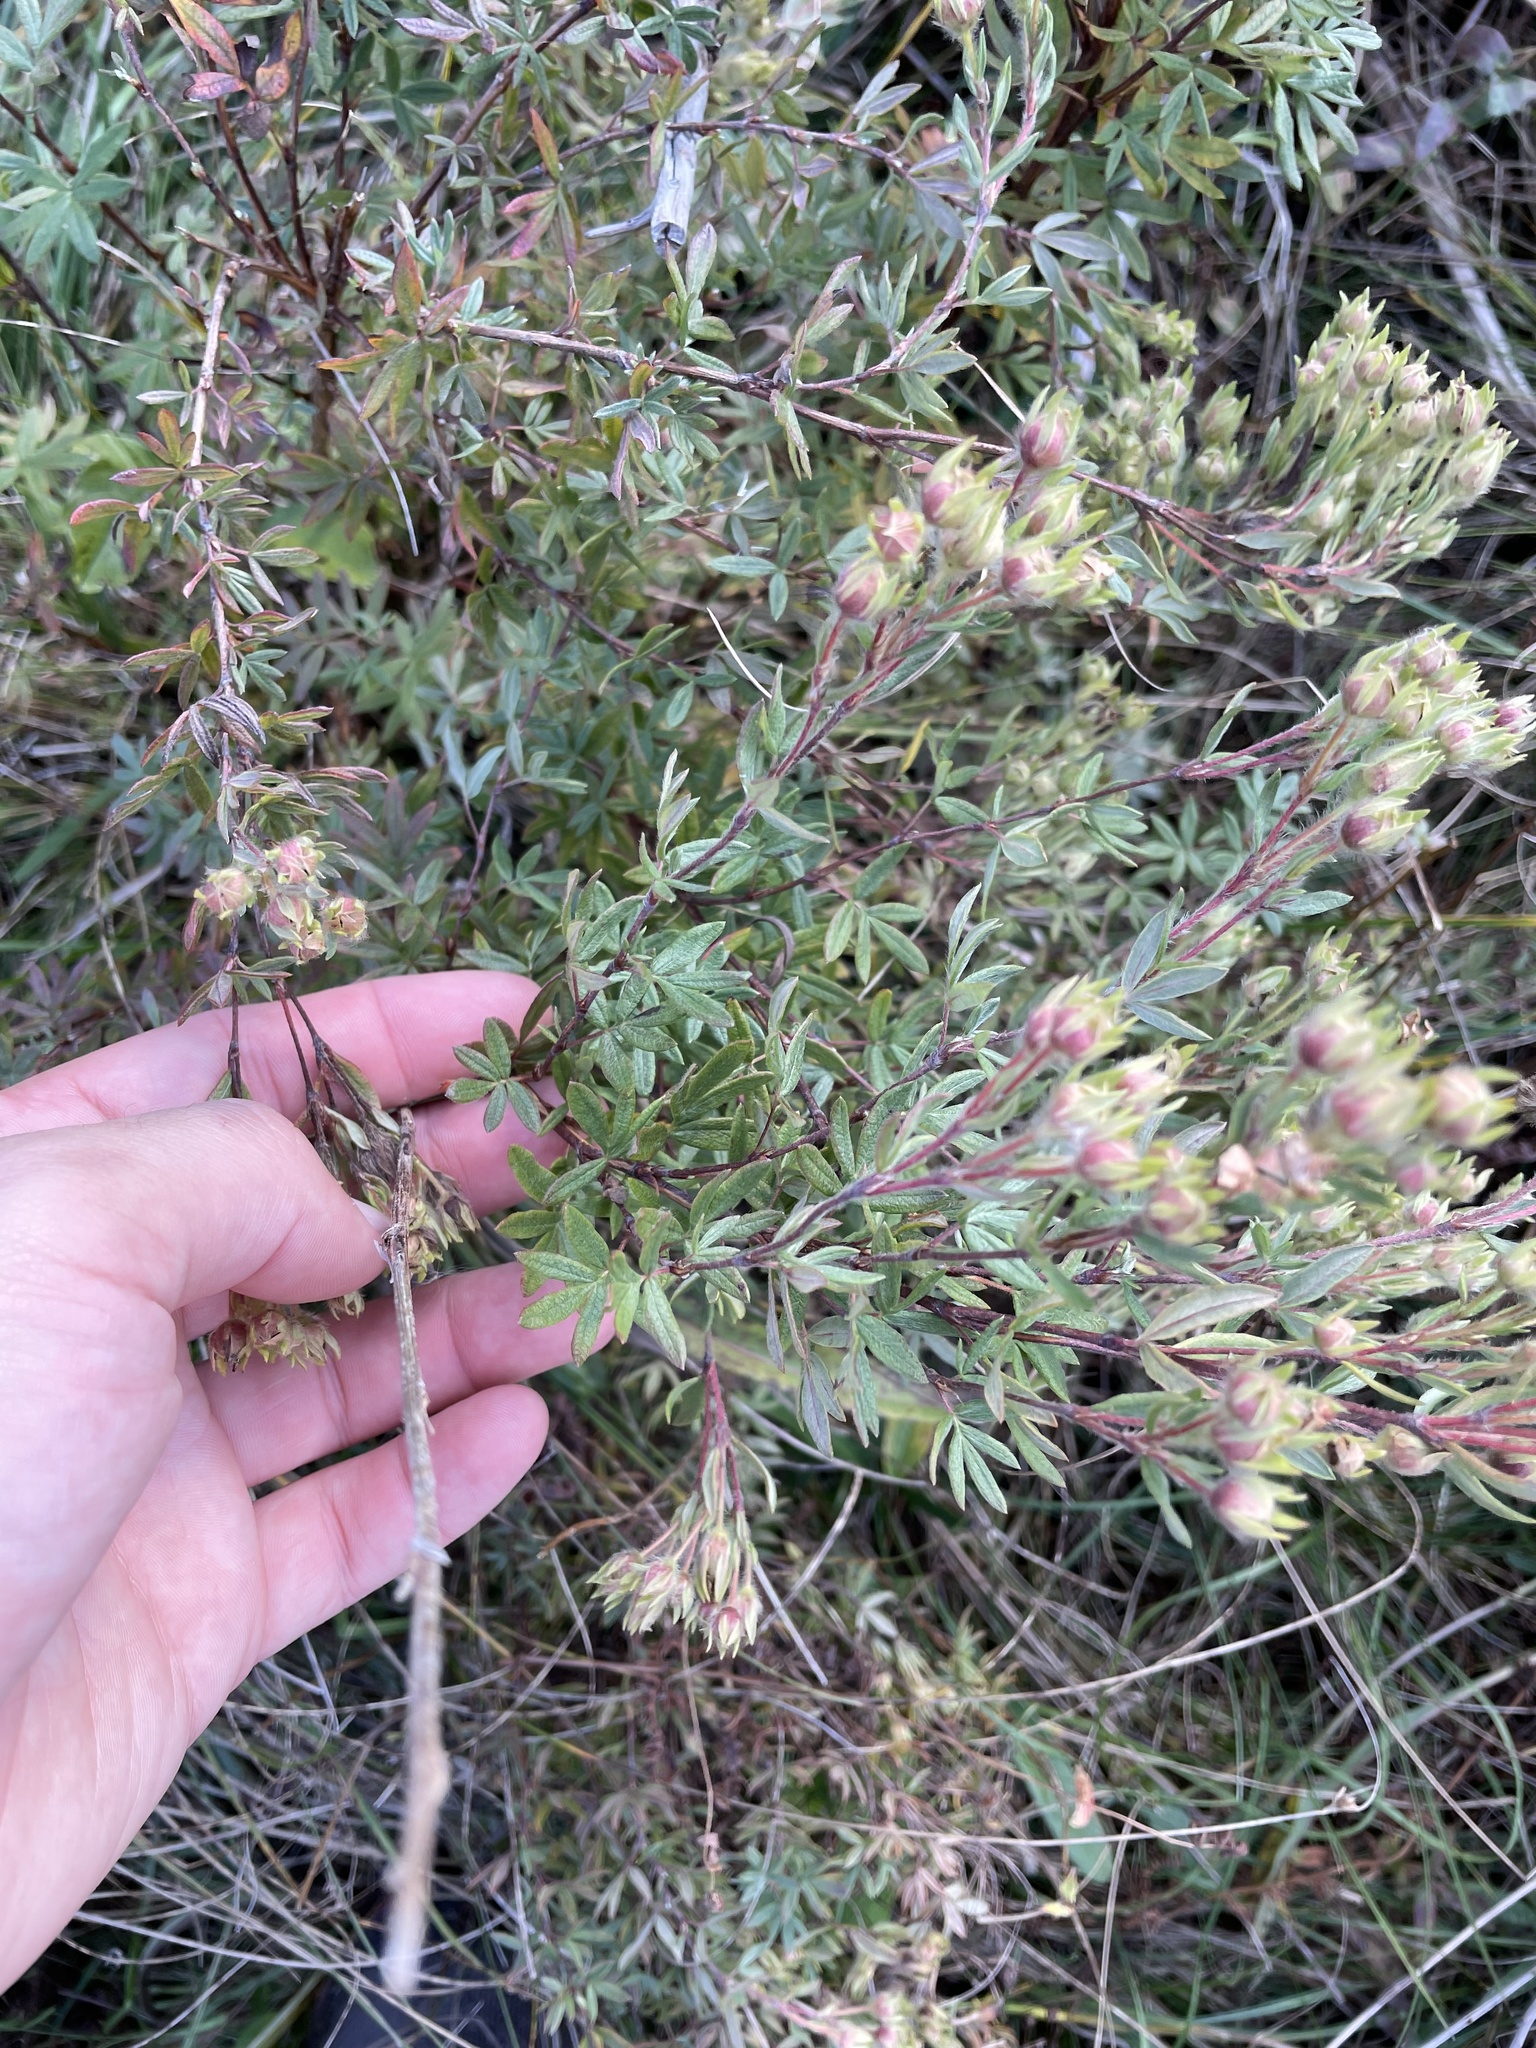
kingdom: Plantae
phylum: Tracheophyta
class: Magnoliopsida
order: Rosales
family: Rosaceae
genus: Dasiphora
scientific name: Dasiphora fruticosa
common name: Shrubby cinquefoil
